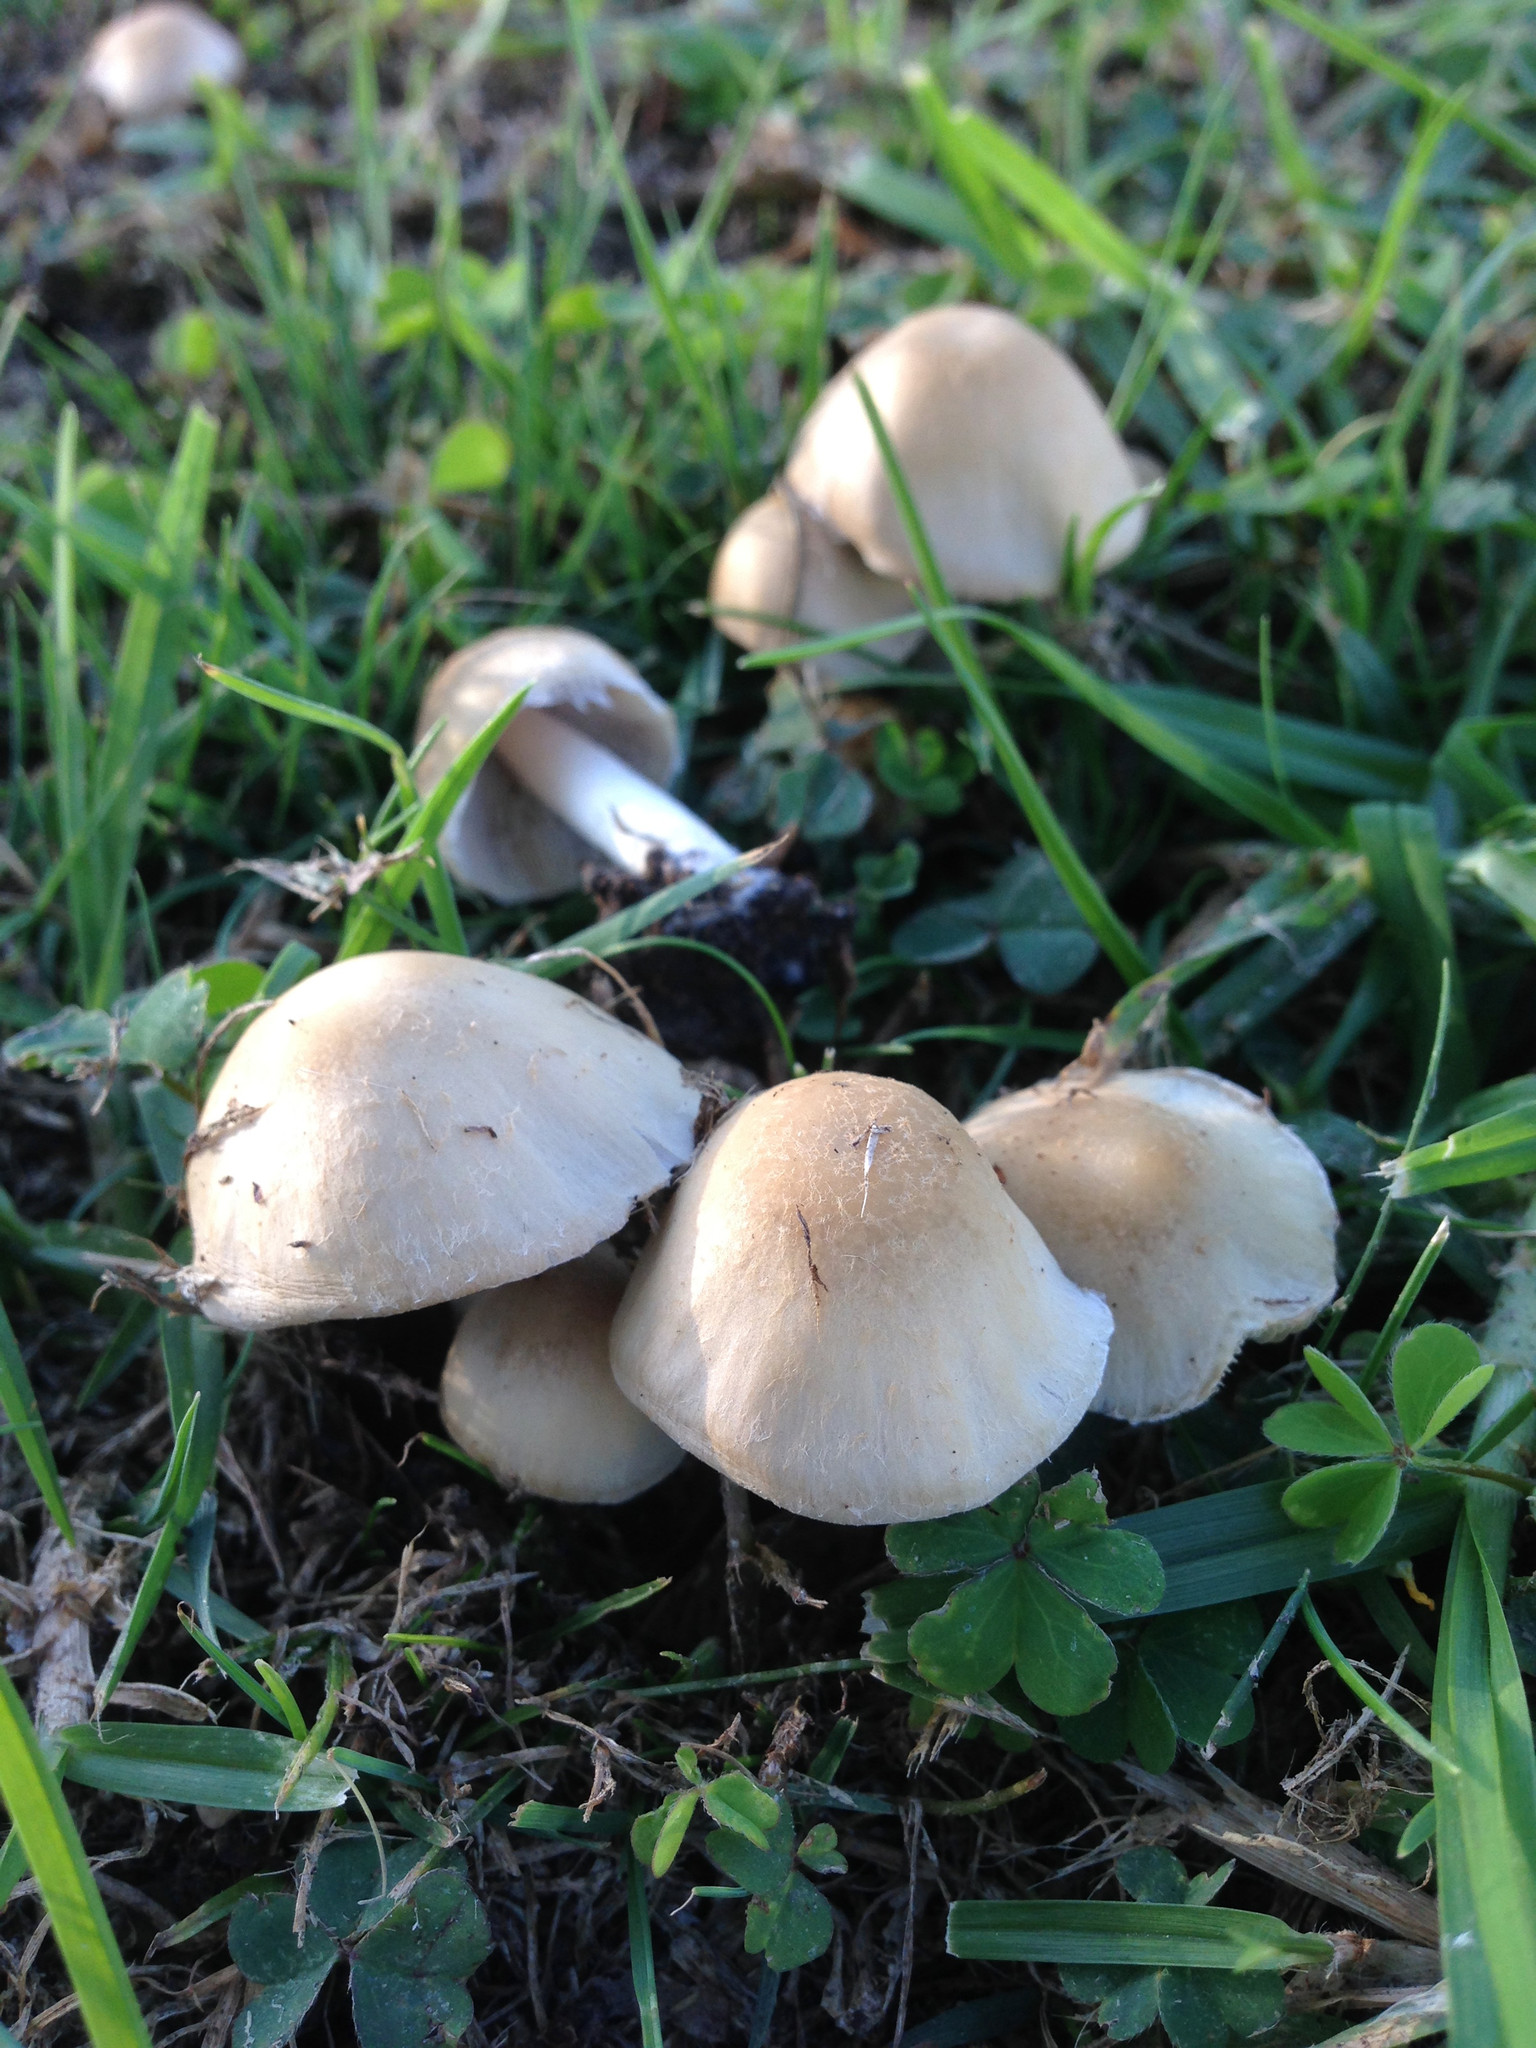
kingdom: Fungi
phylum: Basidiomycota
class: Agaricomycetes
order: Agaricales
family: Psathyrellaceae
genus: Candolleomyces
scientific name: Candolleomyces candolleanus
